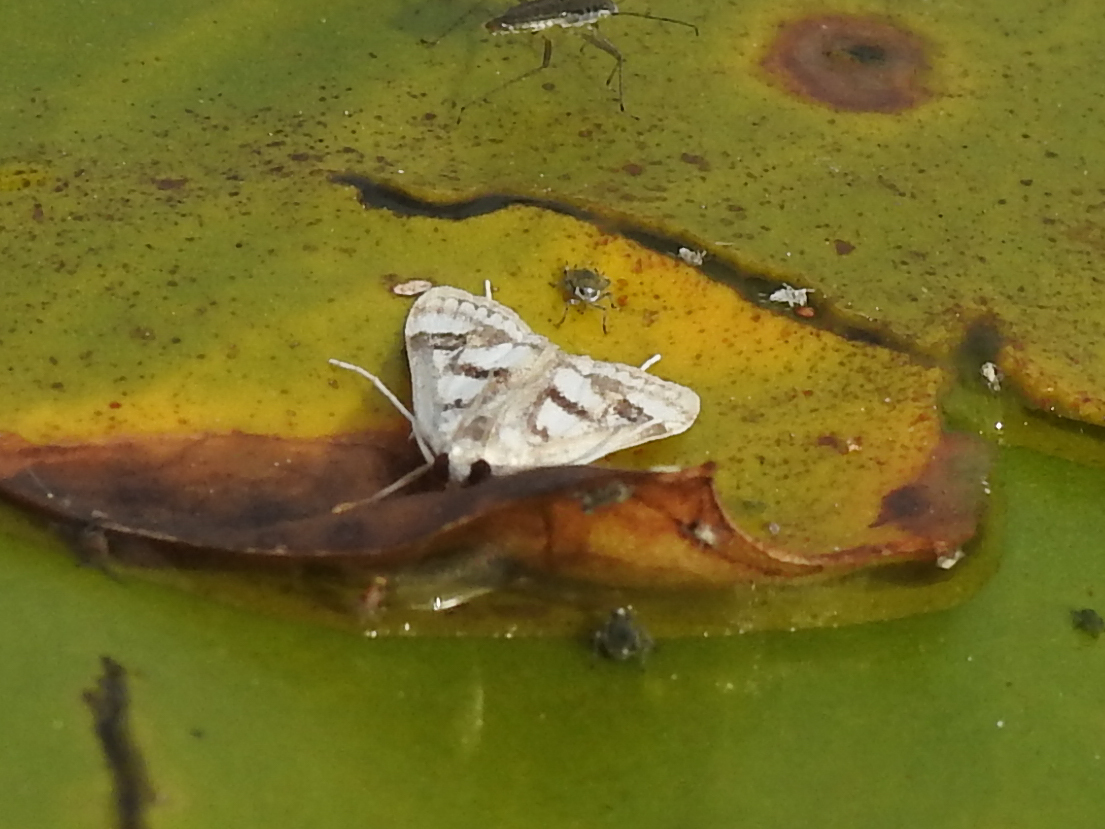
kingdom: Animalia
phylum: Arthropoda
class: Insecta
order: Lepidoptera
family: Crambidae
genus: Parapoynx
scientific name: Parapoynx maculalis
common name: Polymorphic pondweed moth
